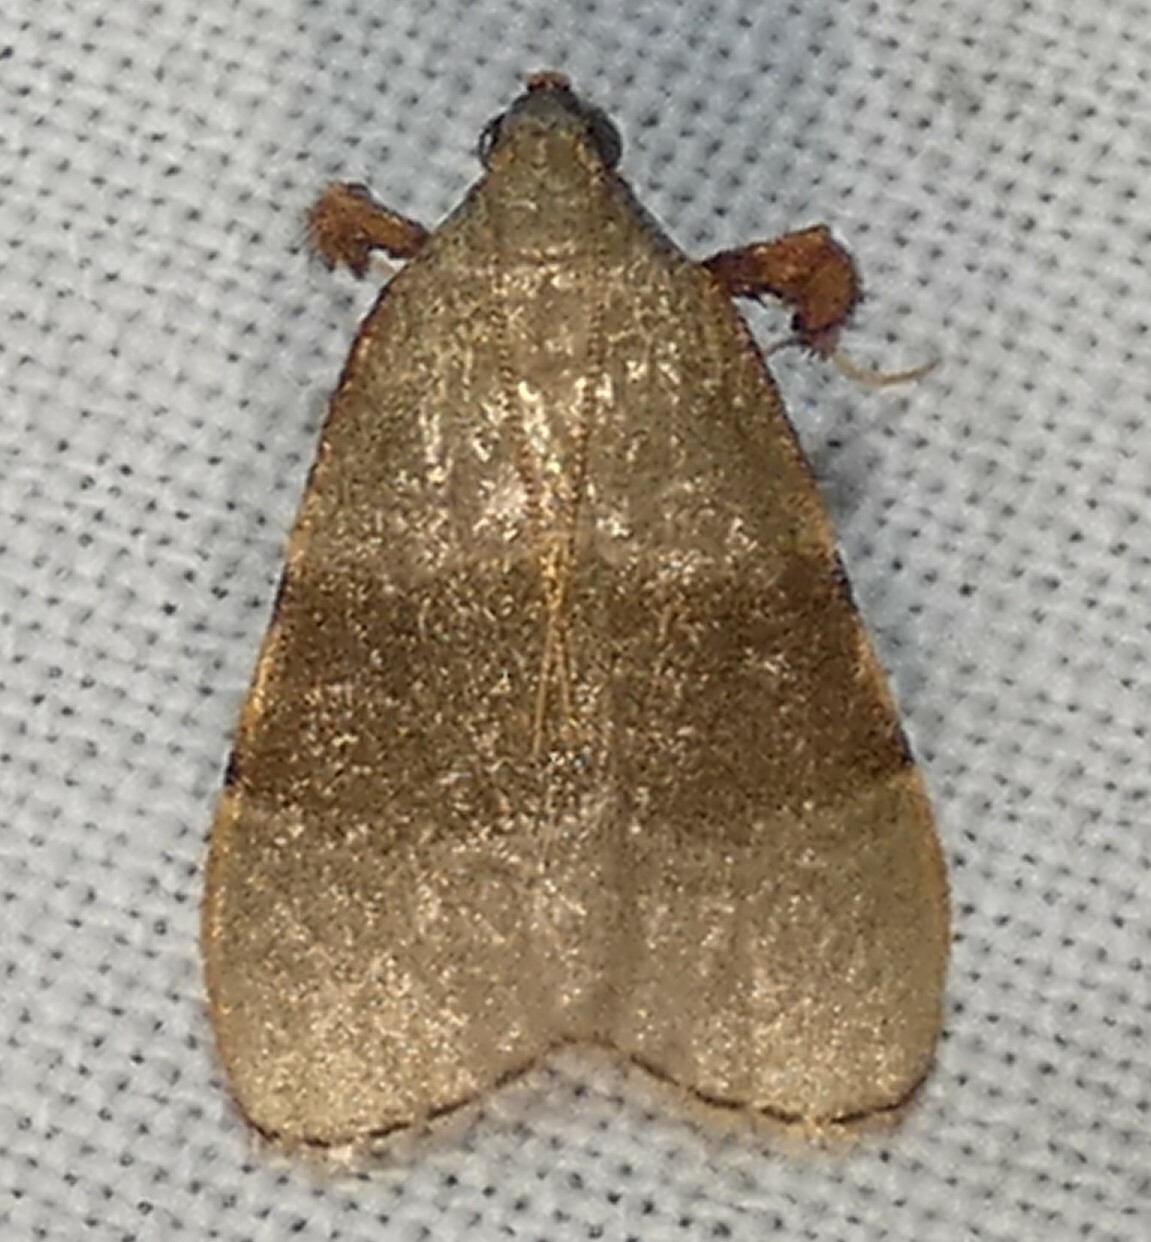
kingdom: Animalia
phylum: Arthropoda
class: Insecta
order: Lepidoptera
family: Pyralidae
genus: Basacallis
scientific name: Basacallis tarachodes
